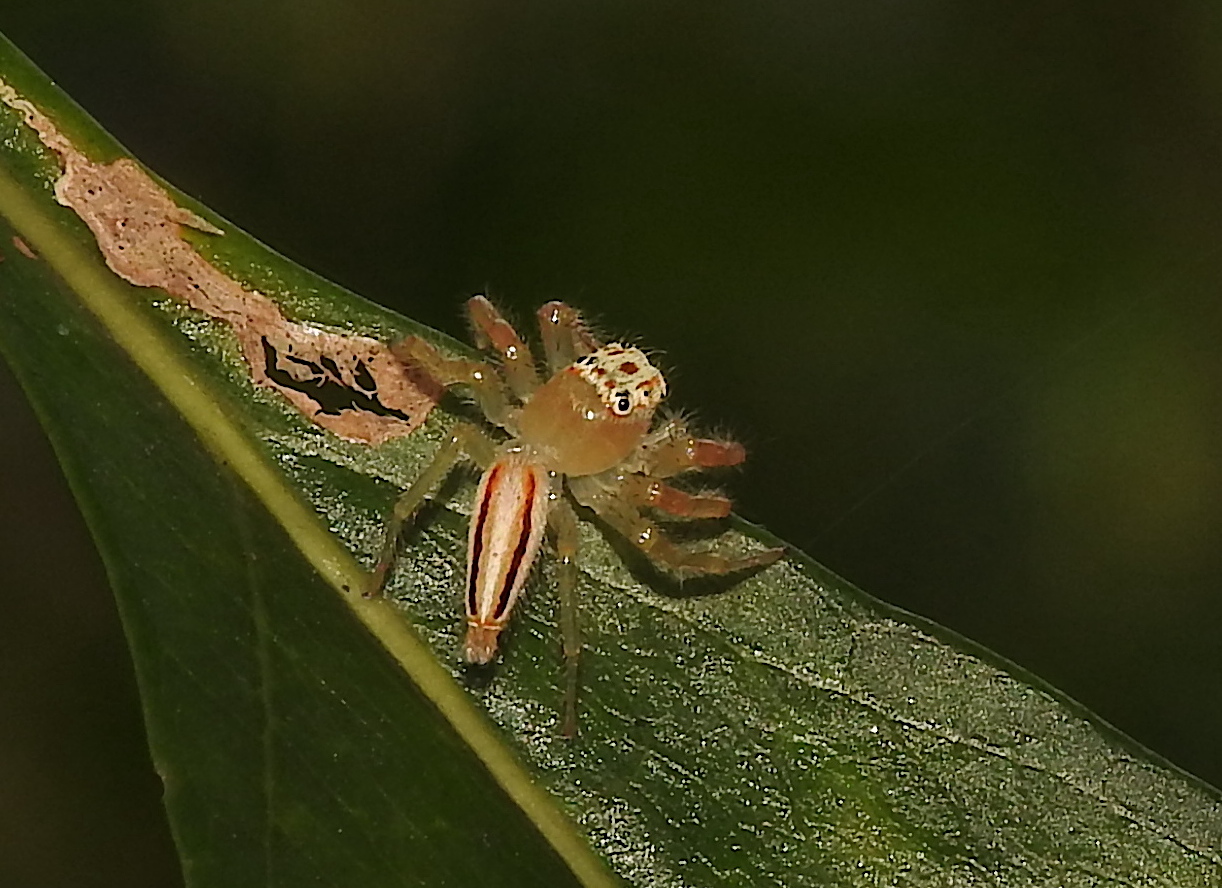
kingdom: Animalia
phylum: Arthropoda
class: Arachnida
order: Araneae
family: Salticidae
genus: Telamonia
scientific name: Telamonia dimidiata
